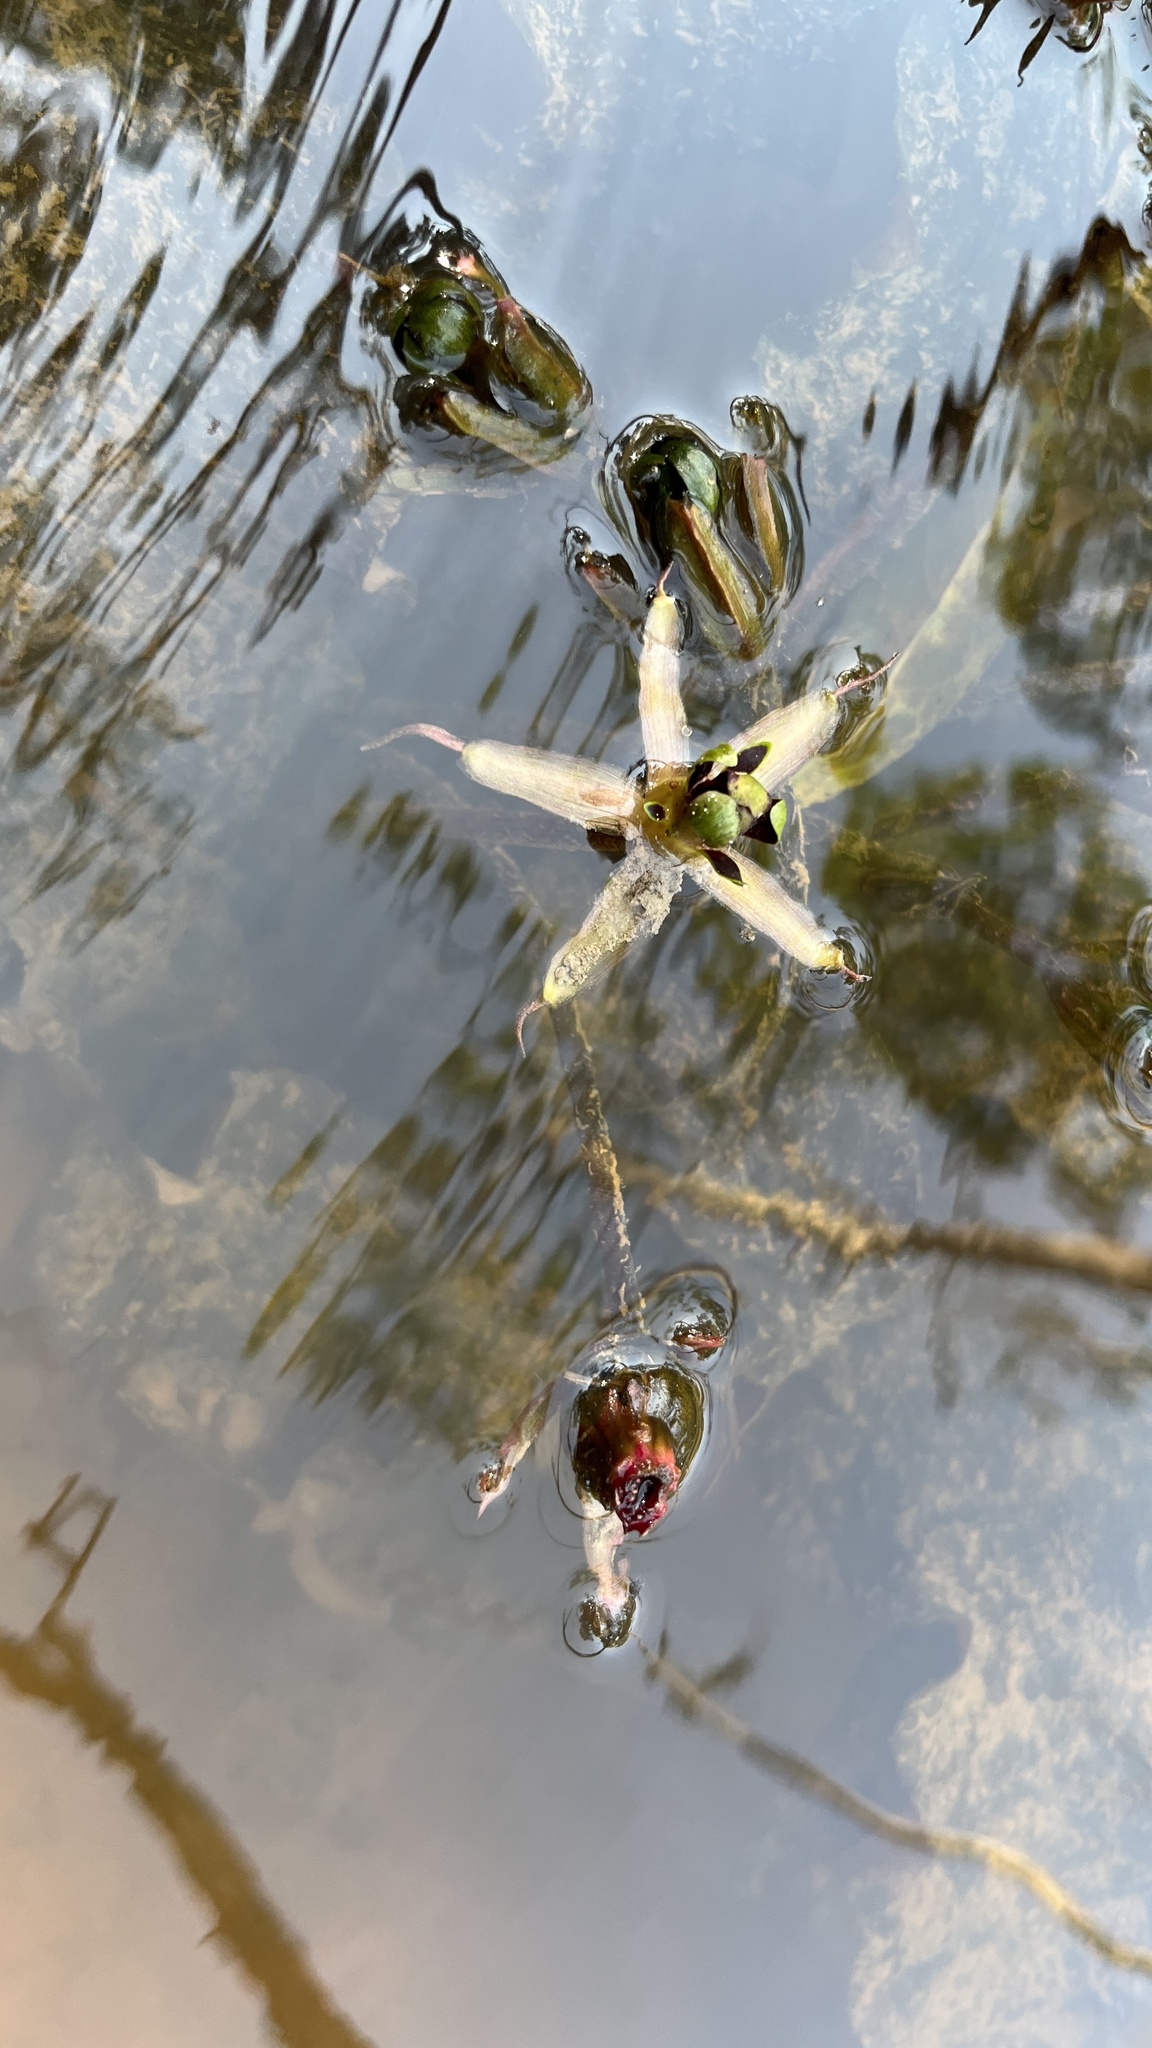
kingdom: Plantae
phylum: Tracheophyta
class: Magnoliopsida
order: Nymphaeales
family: Nymphaeaceae
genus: Barclaya
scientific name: Barclaya longifolia
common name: Orchid lily
